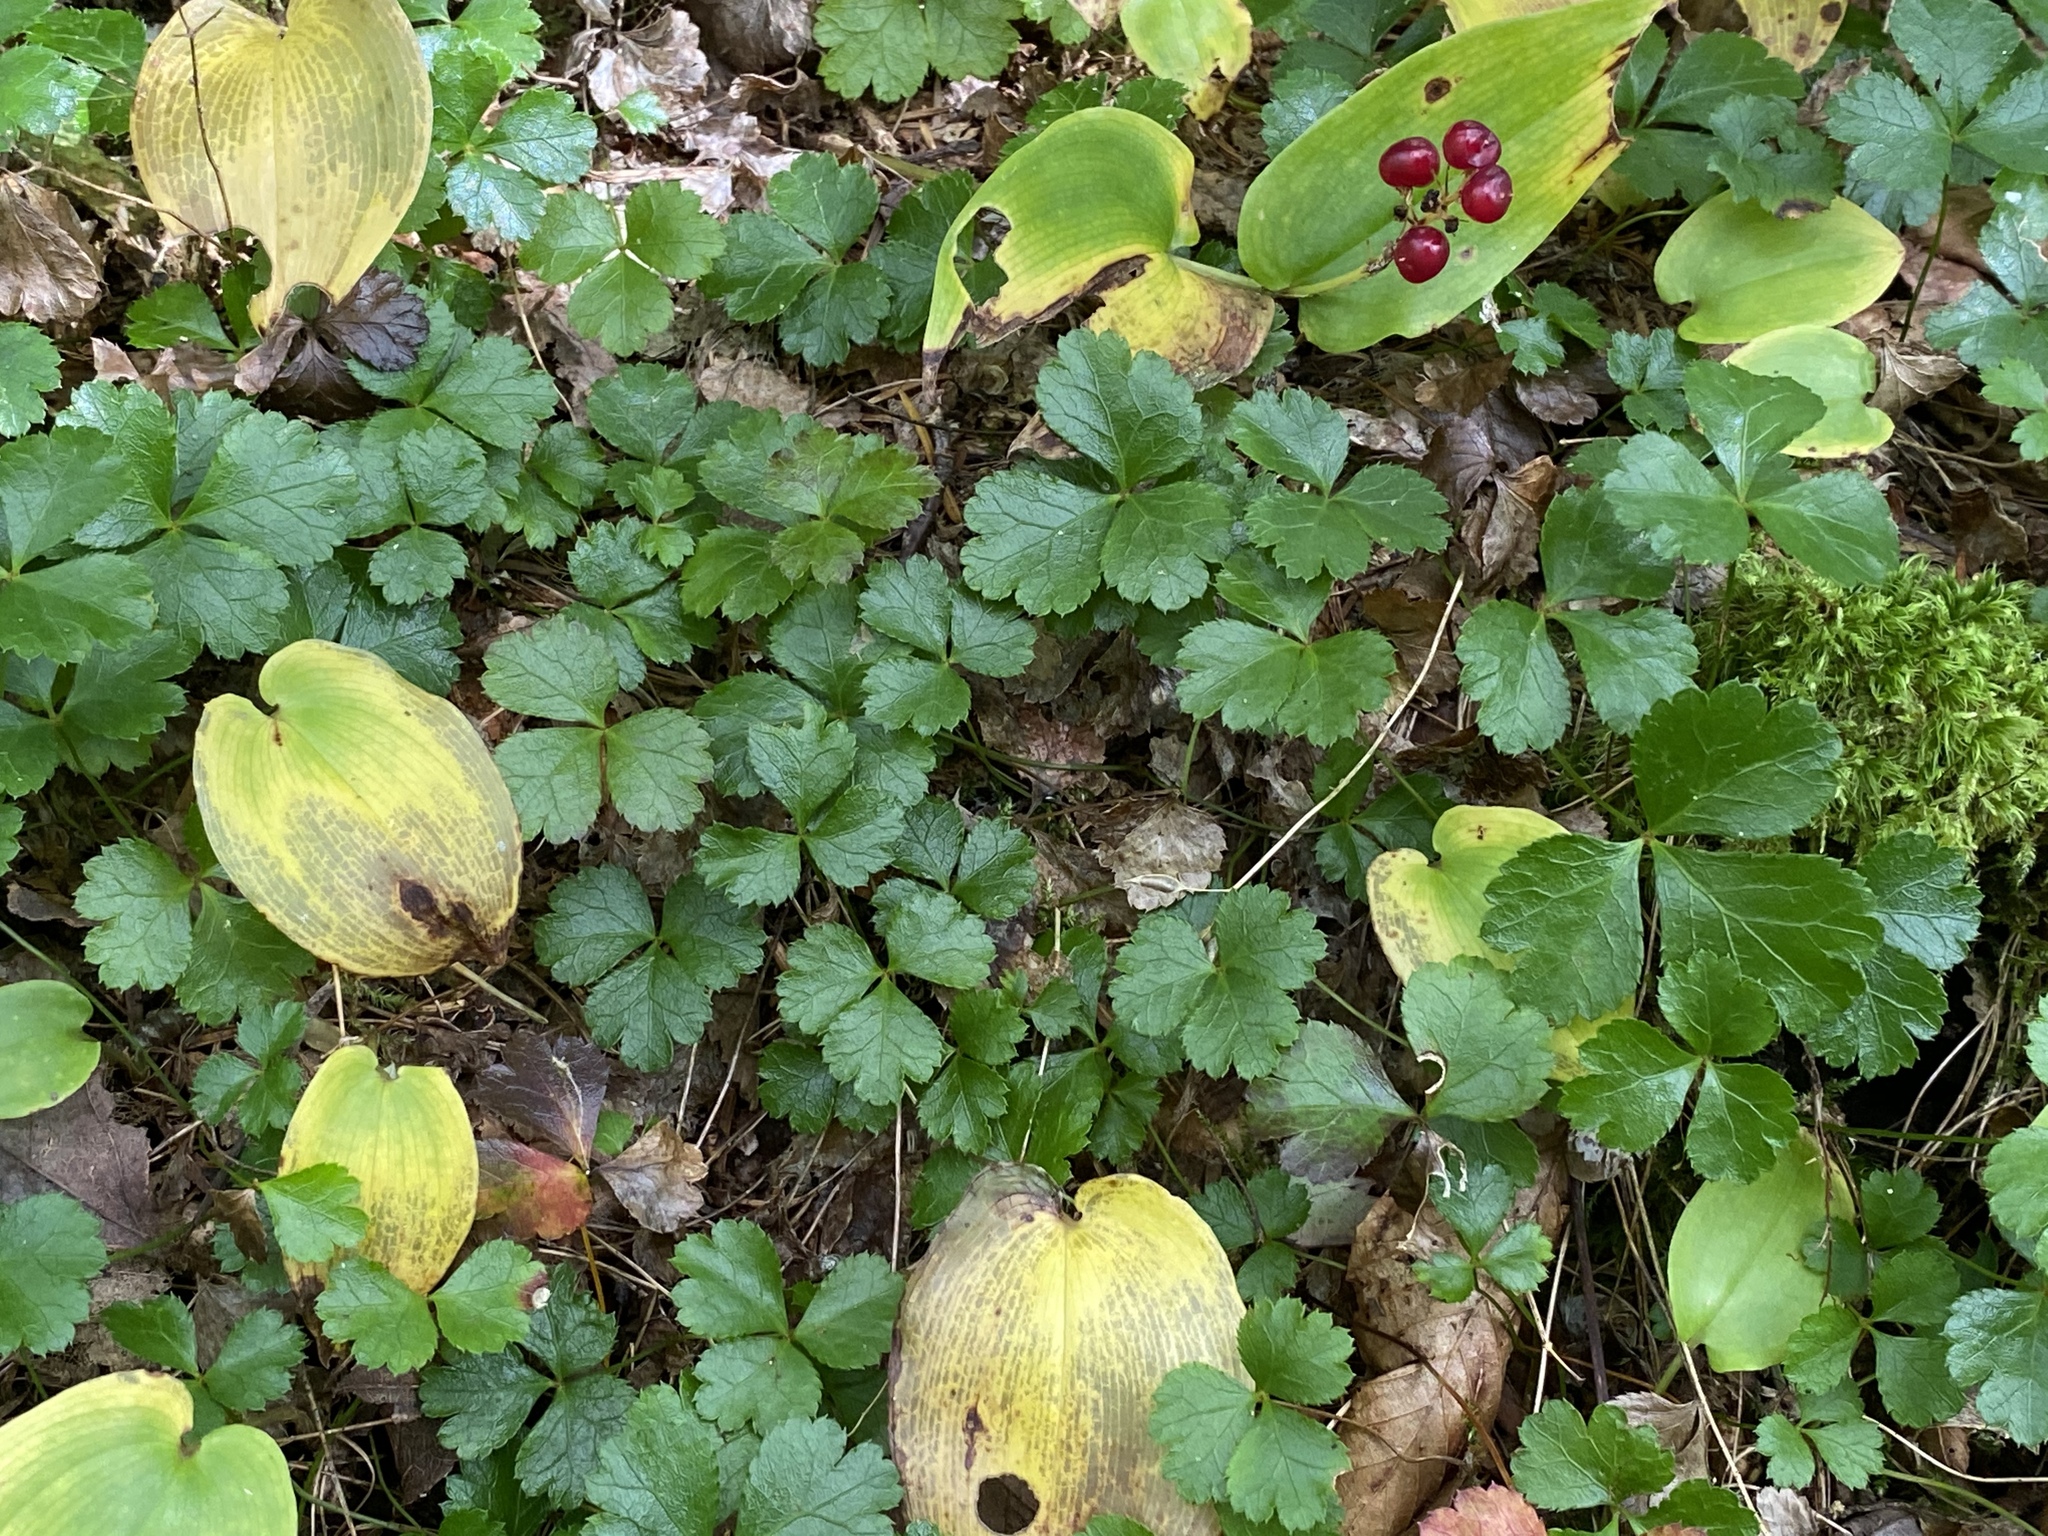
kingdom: Plantae
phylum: Tracheophyta
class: Magnoliopsida
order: Ranunculales
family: Ranunculaceae
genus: Coptis
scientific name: Coptis trifolia
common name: Canker-root
